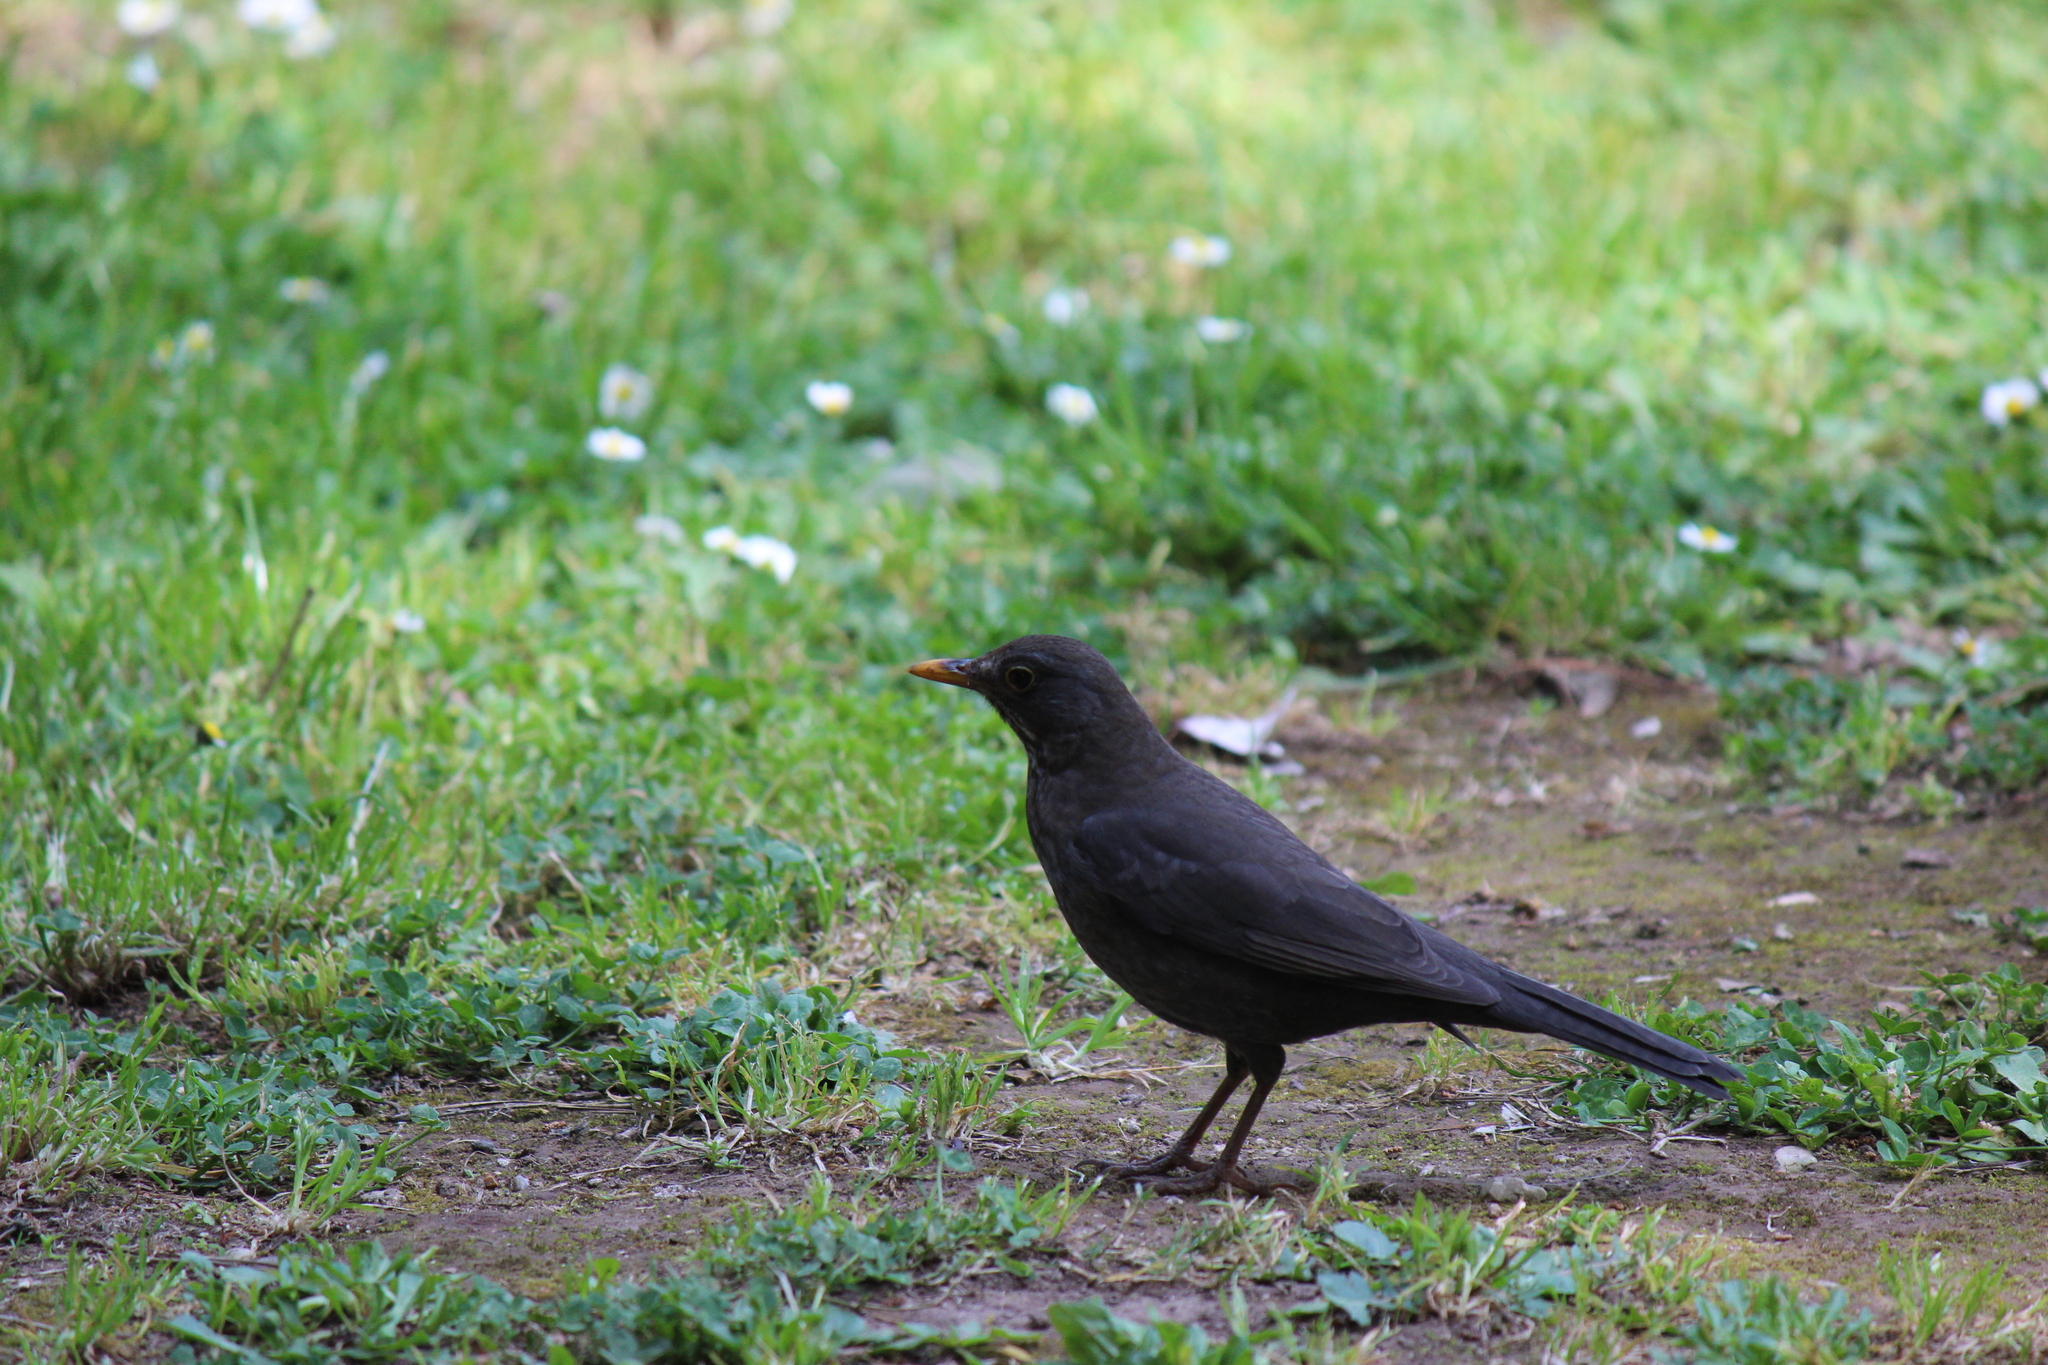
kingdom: Animalia
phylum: Chordata
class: Aves
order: Passeriformes
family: Turdidae
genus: Turdus
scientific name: Turdus merula
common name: Common blackbird
